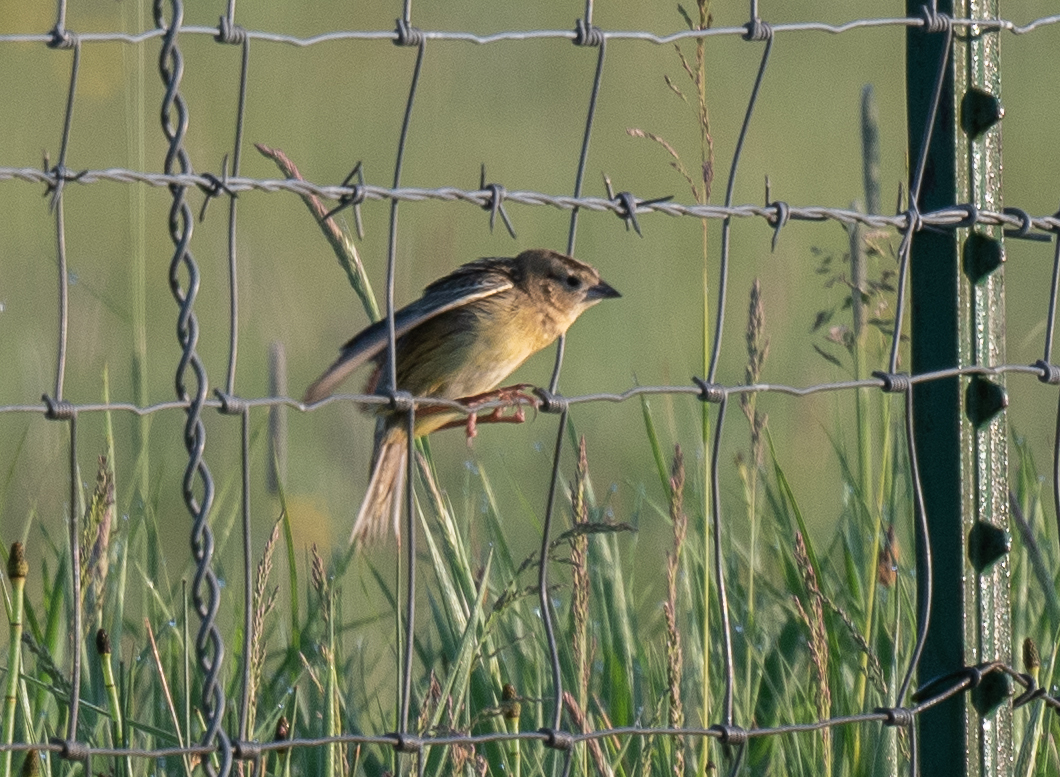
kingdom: Animalia
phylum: Chordata
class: Aves
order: Passeriformes
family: Icteridae
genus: Dolichonyx
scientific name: Dolichonyx oryzivorus
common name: Bobolink
